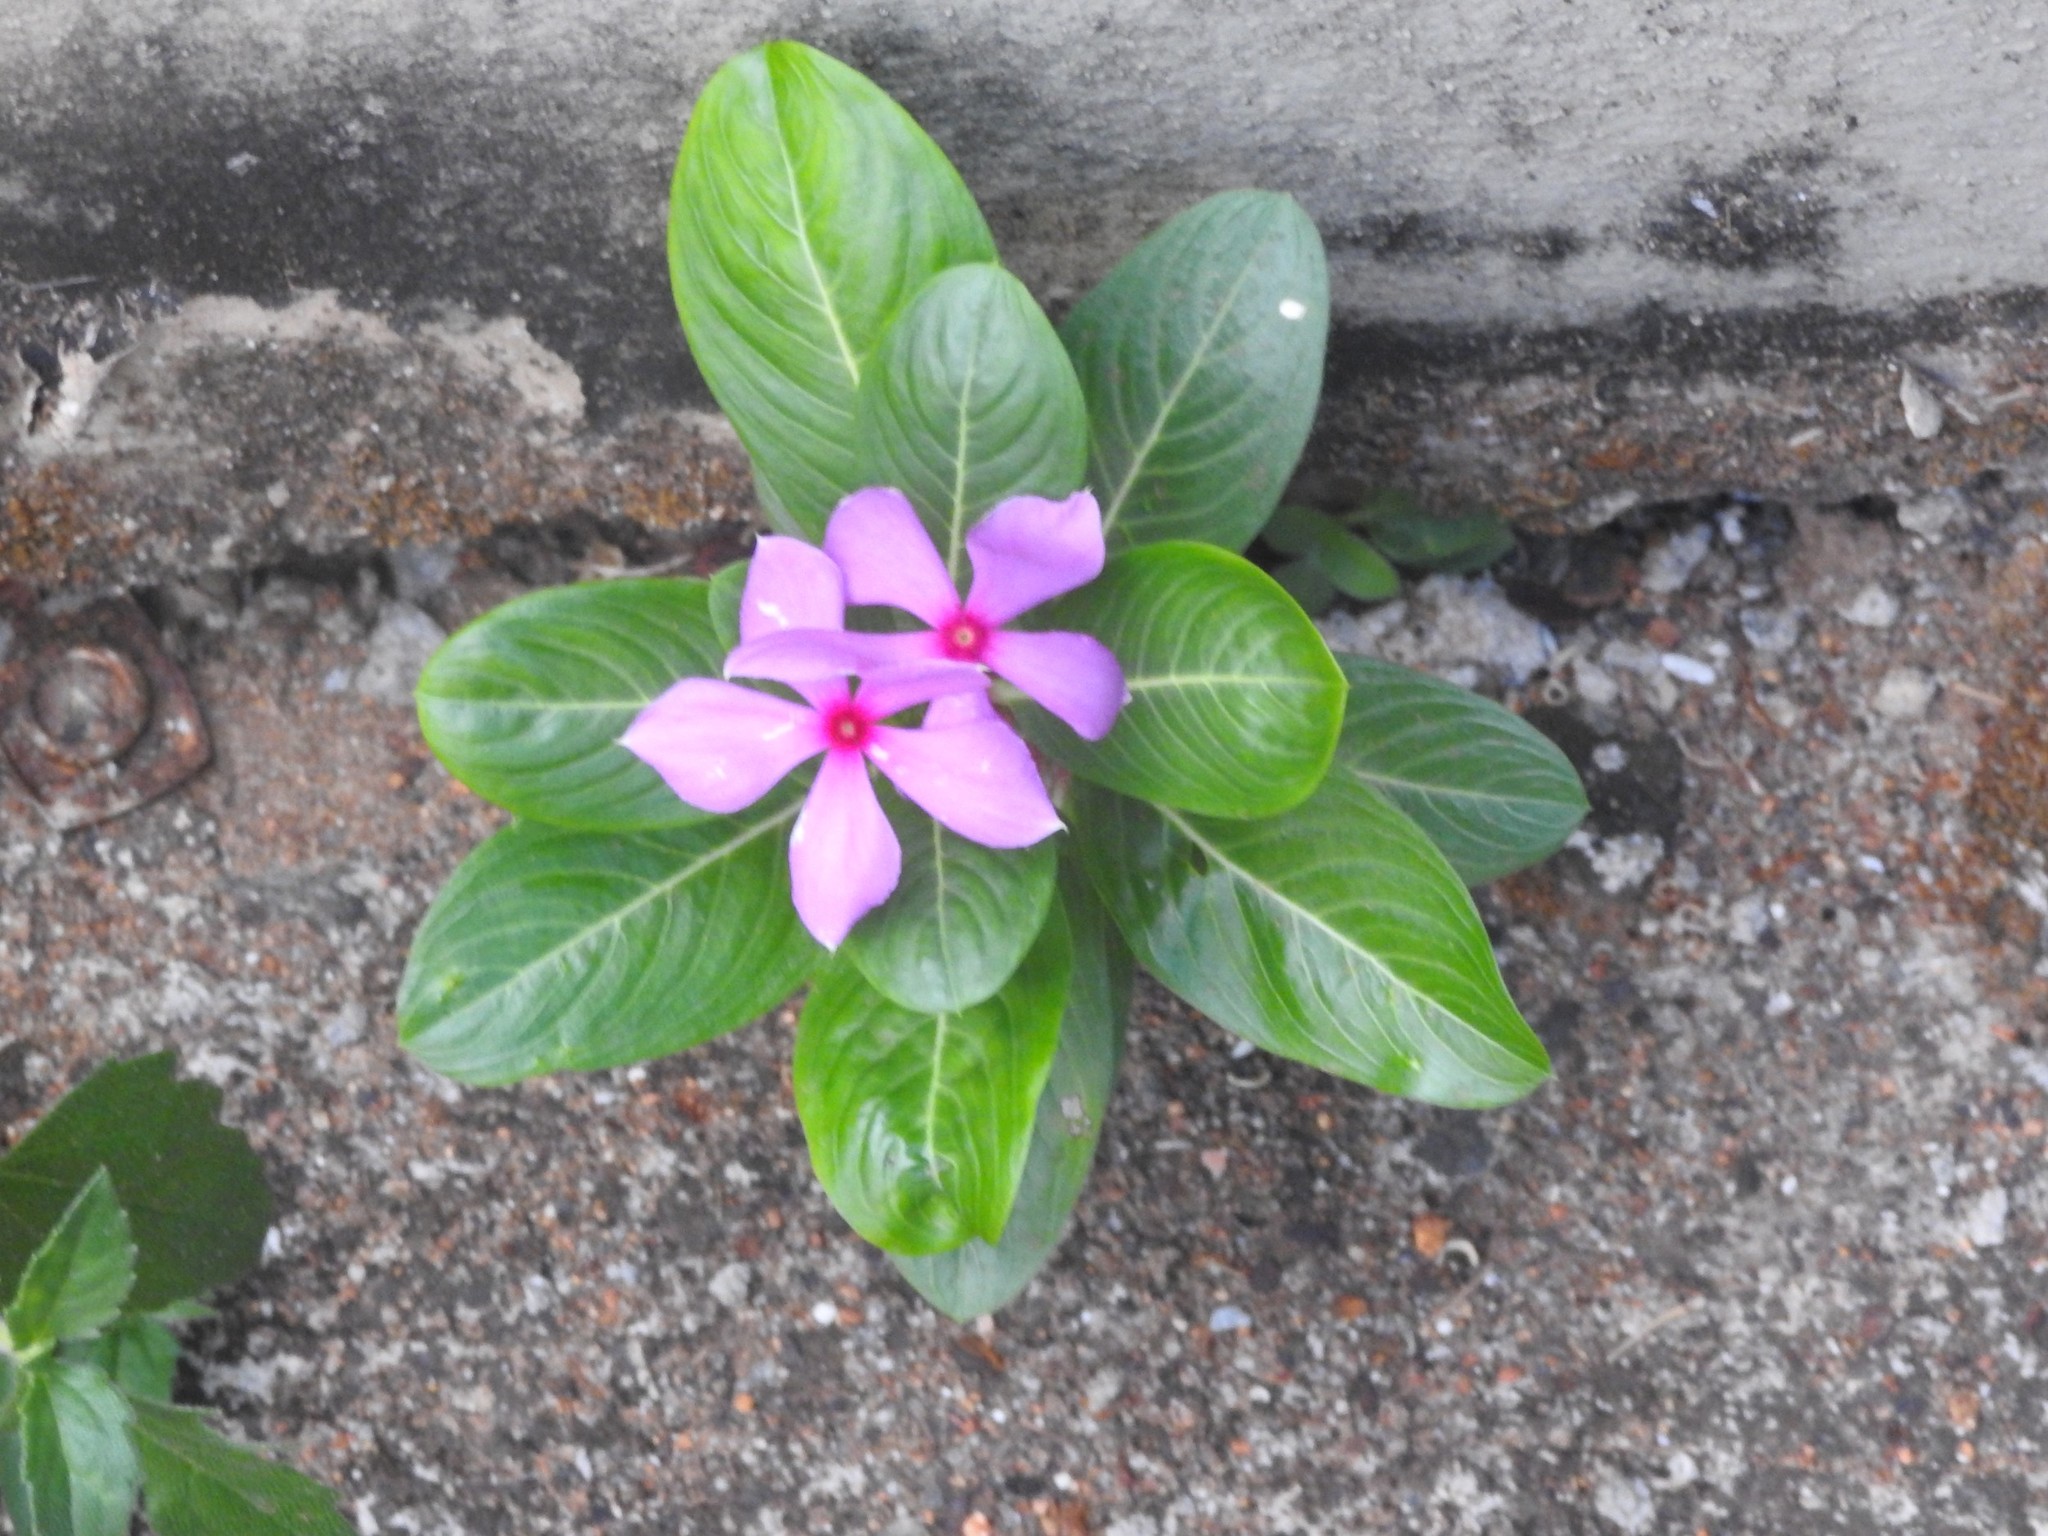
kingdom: Plantae
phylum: Tracheophyta
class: Magnoliopsida
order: Gentianales
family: Apocynaceae
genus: Catharanthus
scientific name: Catharanthus roseus
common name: Madagascar periwinkle
